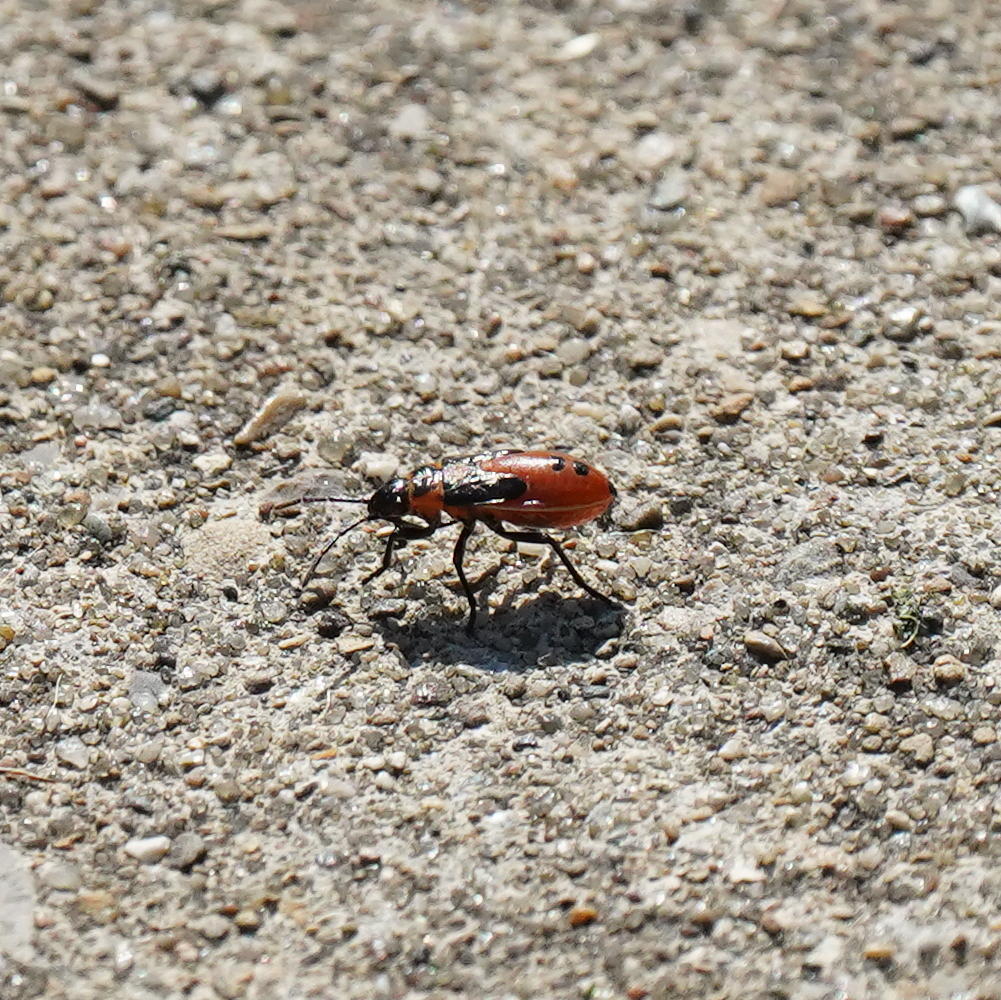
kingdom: Animalia
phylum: Arthropoda
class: Insecta
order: Hemiptera
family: Lygaeidae
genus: Lygaeus
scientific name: Lygaeus turcicus
